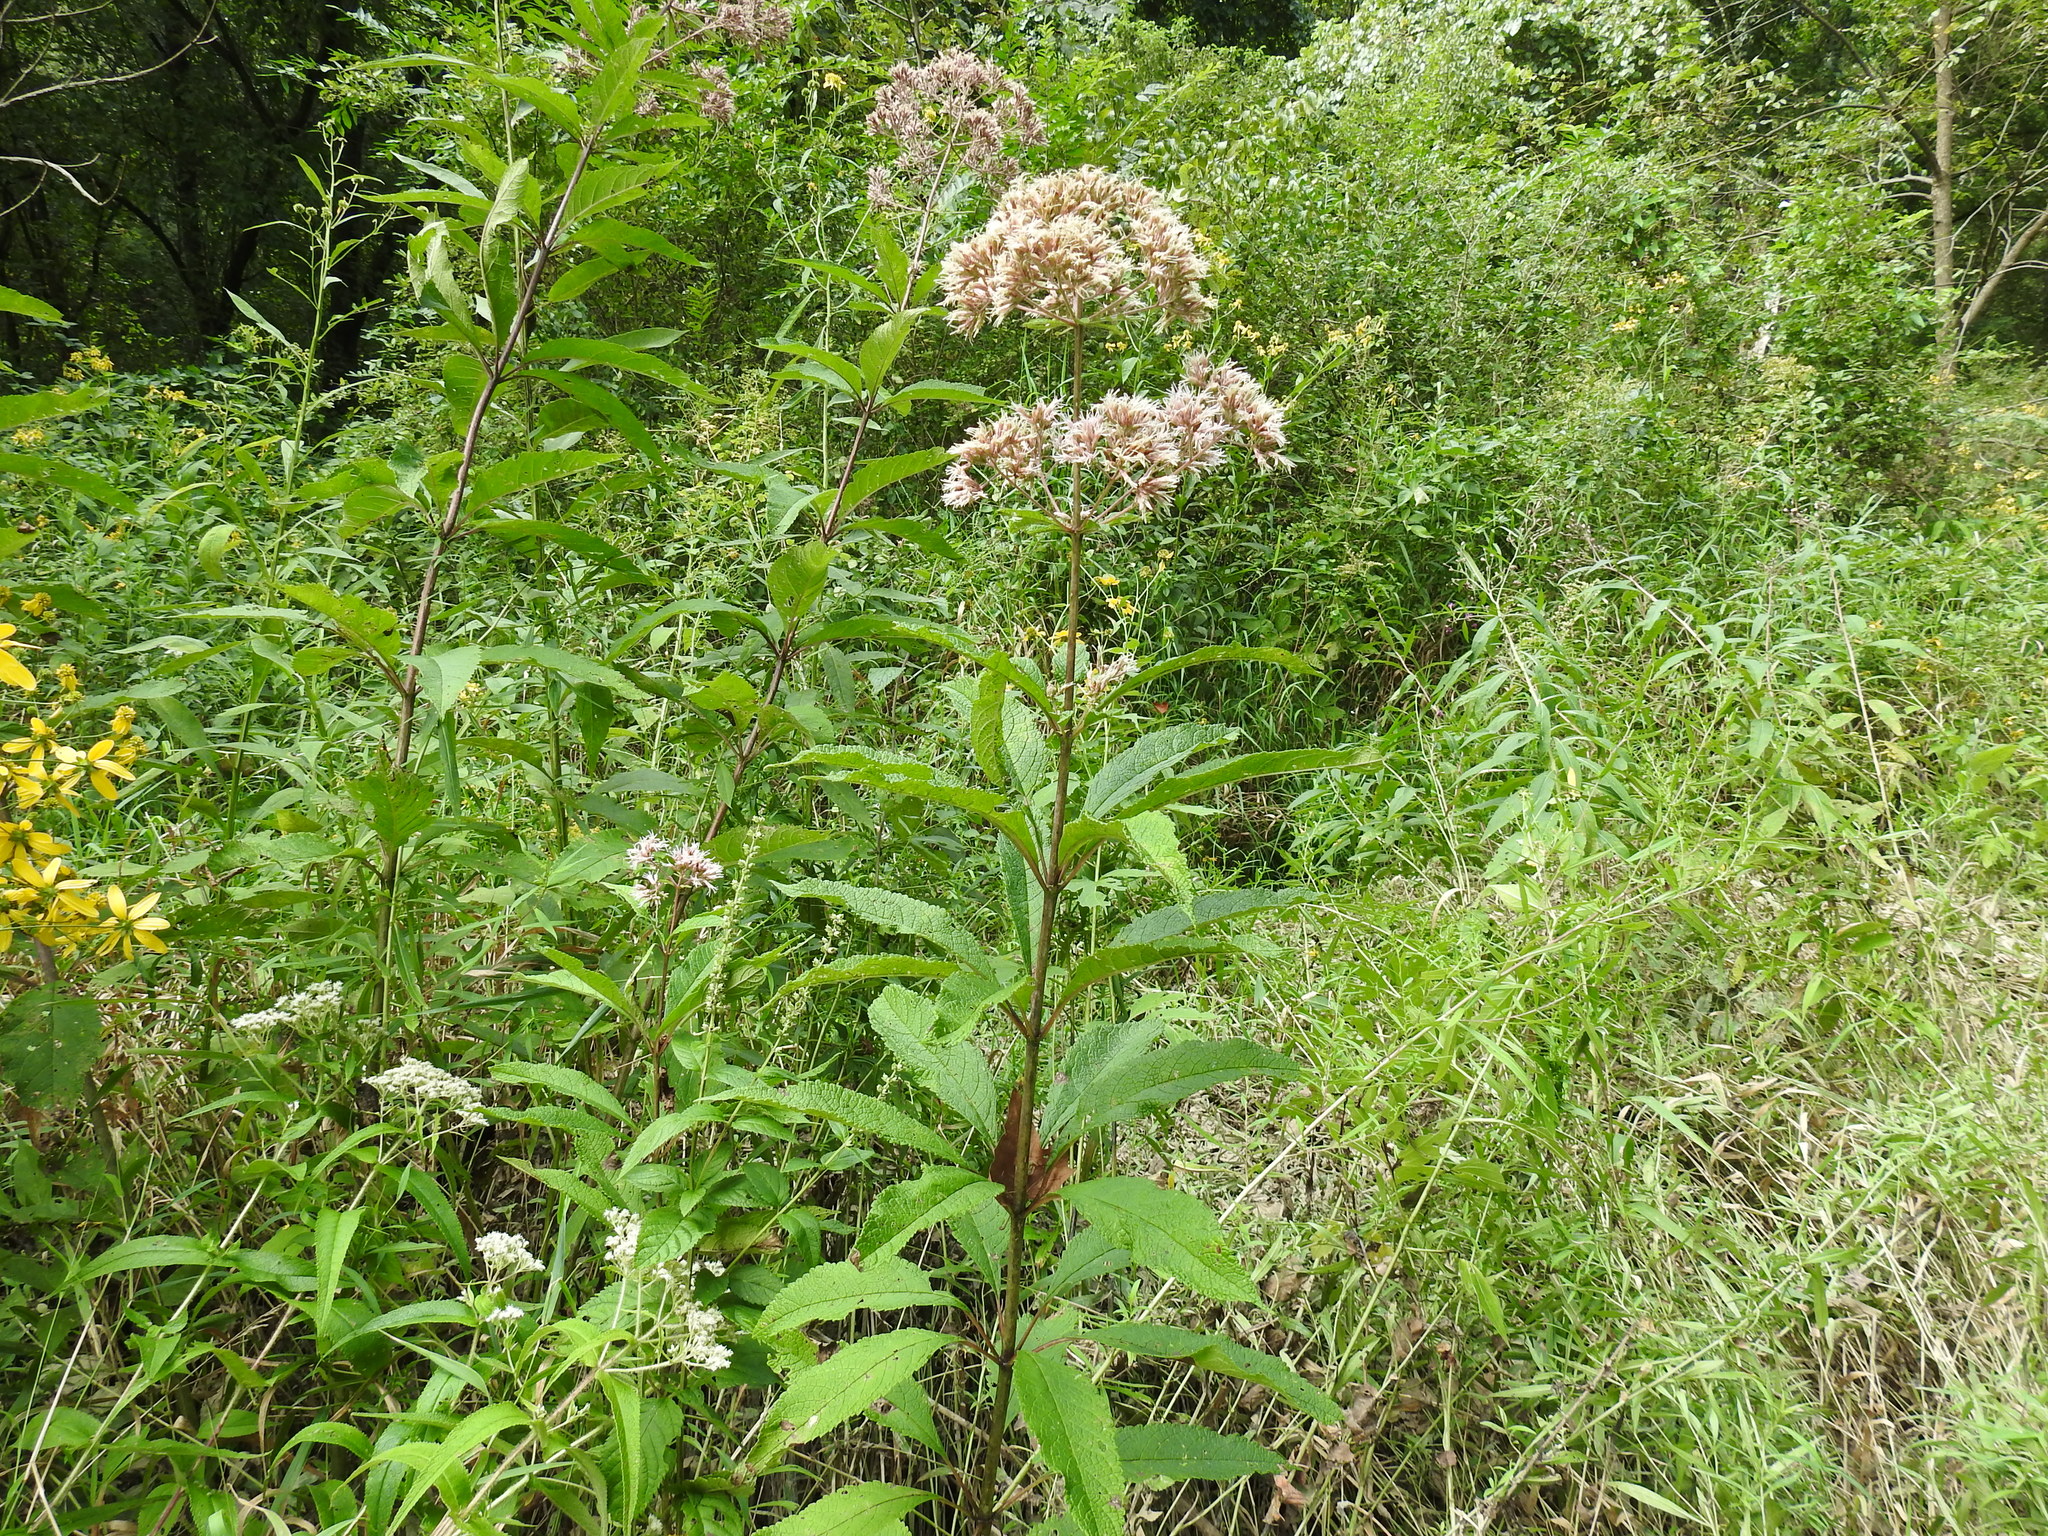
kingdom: Plantae
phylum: Tracheophyta
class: Magnoliopsida
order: Asterales
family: Asteraceae
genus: Eutrochium
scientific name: Eutrochium fistulosum
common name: Trumpetweed
